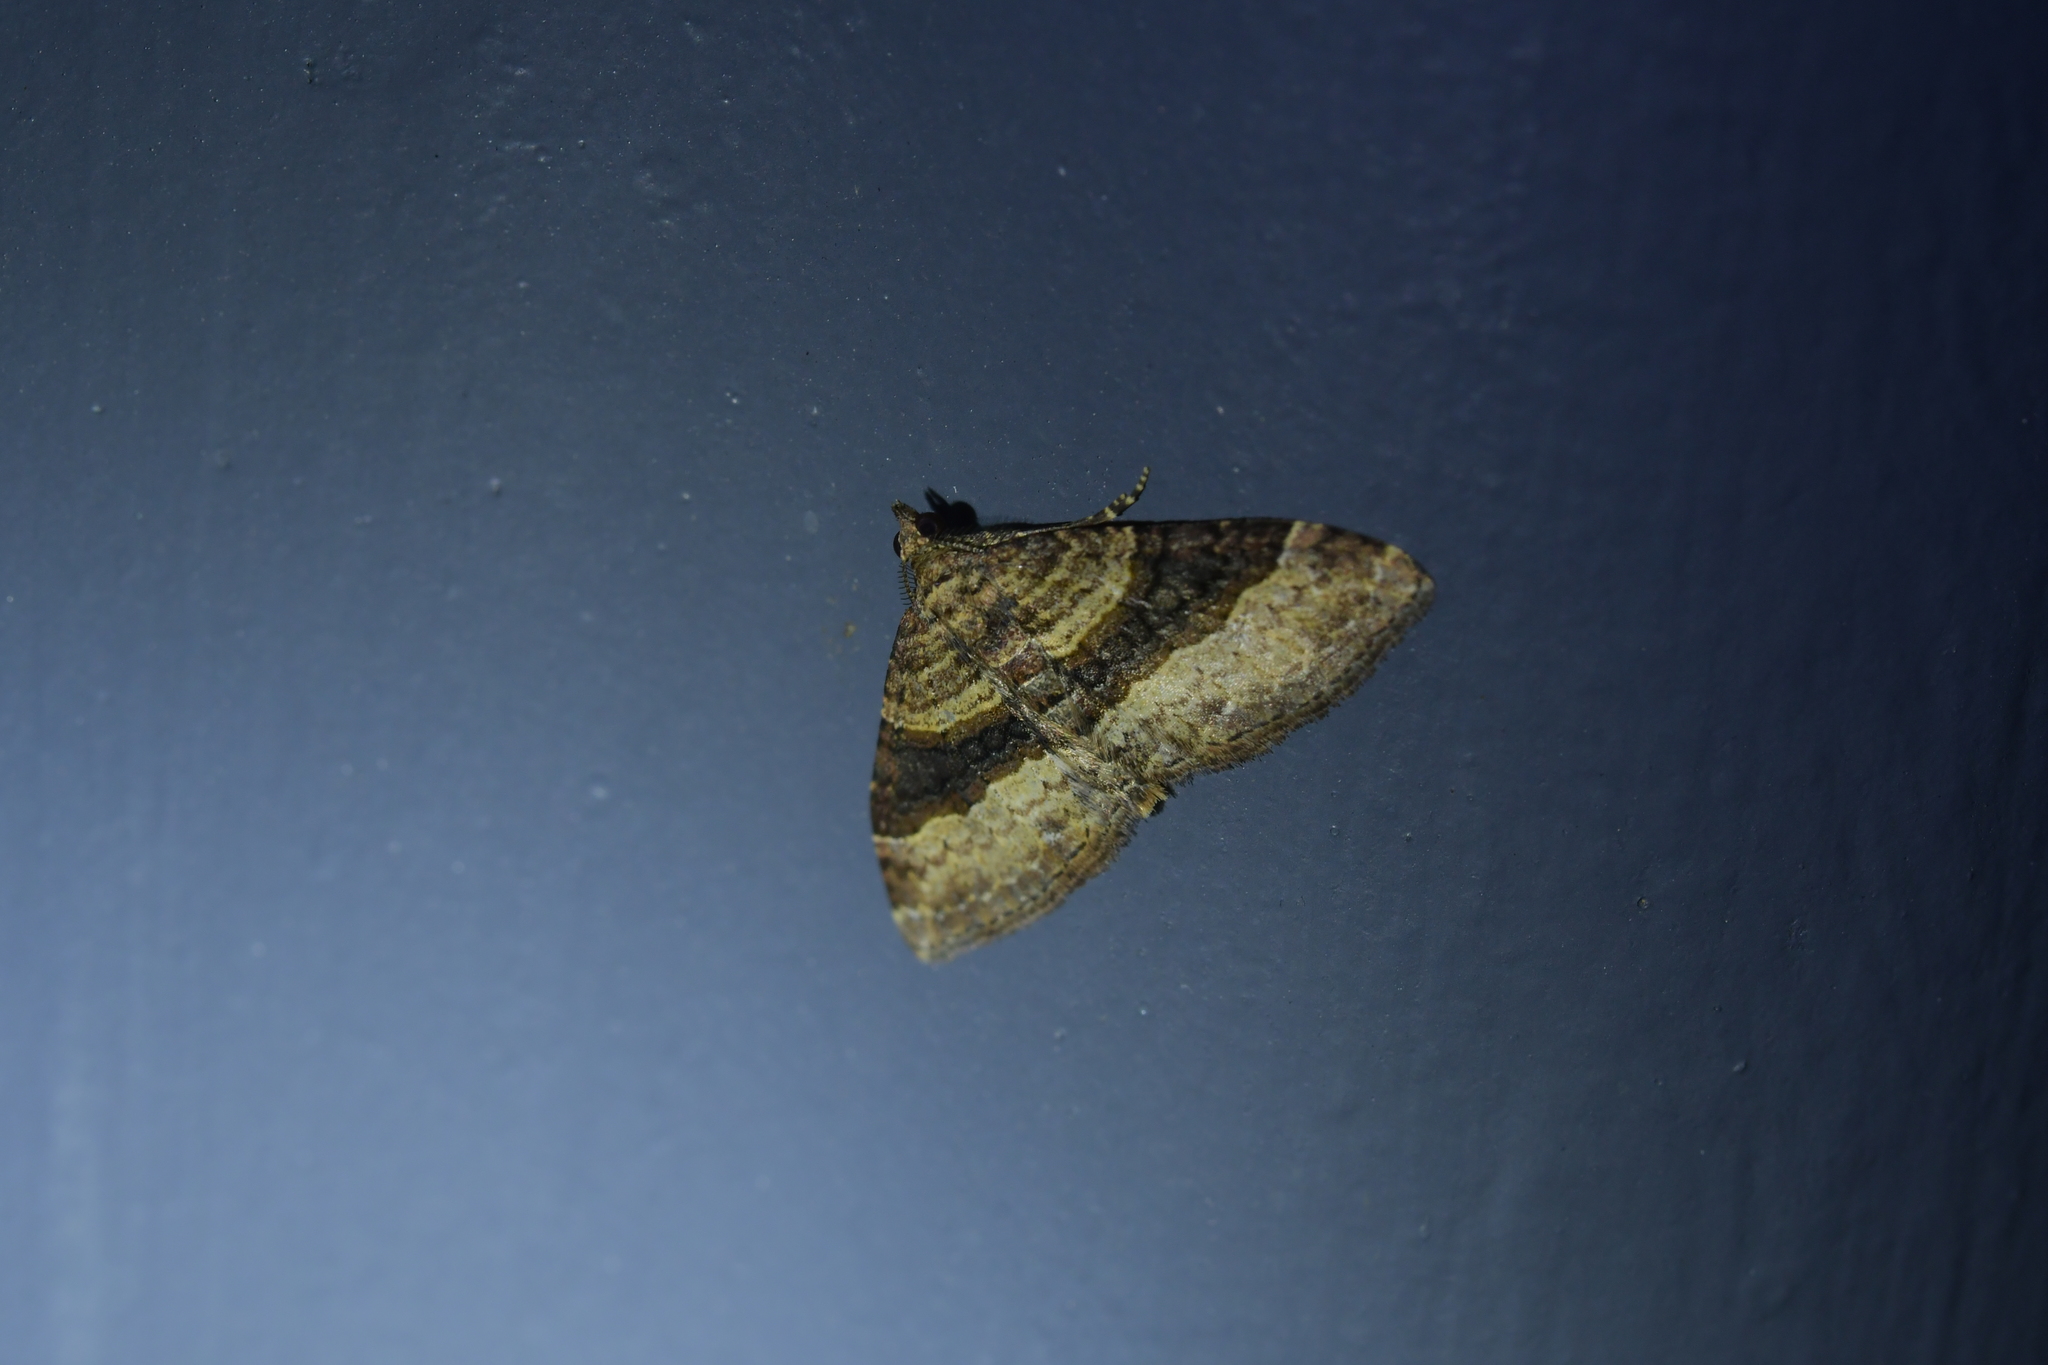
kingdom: Animalia
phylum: Arthropoda
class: Insecta
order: Lepidoptera
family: Geometridae
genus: Epyaxa
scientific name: Epyaxa lucidata
